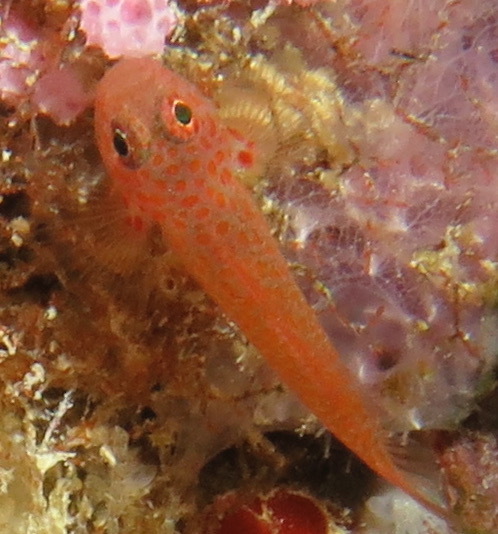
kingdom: Animalia
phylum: Chordata
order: Perciformes
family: Gobiidae
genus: Trimma
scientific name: Trimma macrophthalmum
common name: Flame goby
